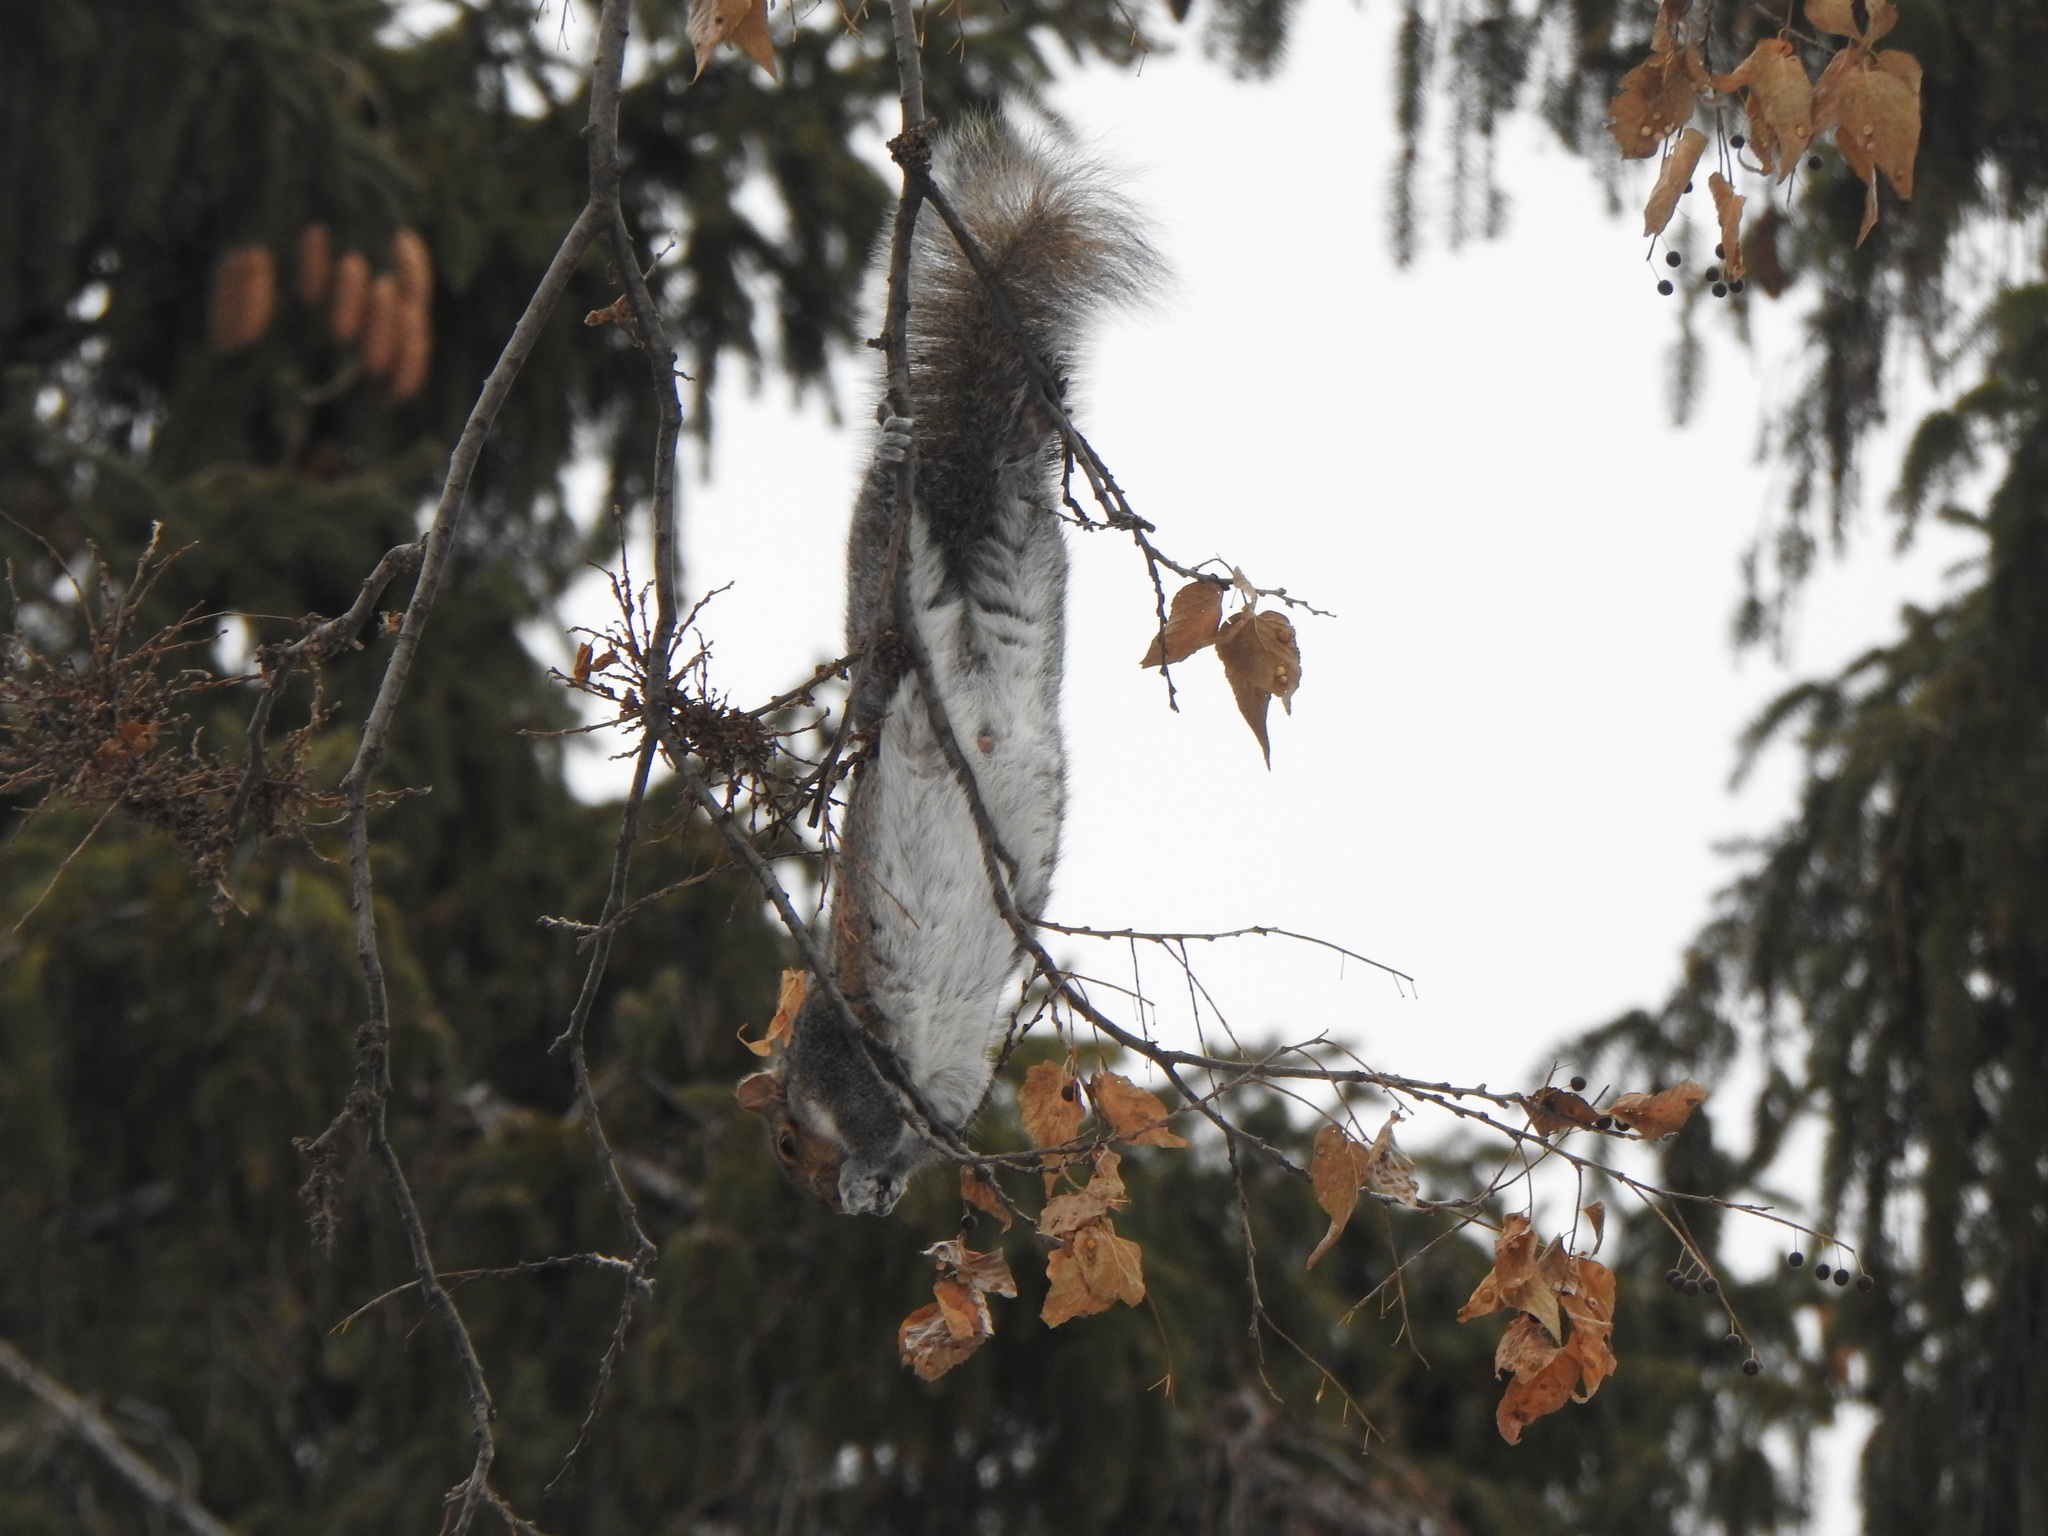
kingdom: Animalia
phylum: Chordata
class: Mammalia
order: Rodentia
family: Sciuridae
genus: Sciurus
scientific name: Sciurus carolinensis
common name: Eastern gray squirrel
